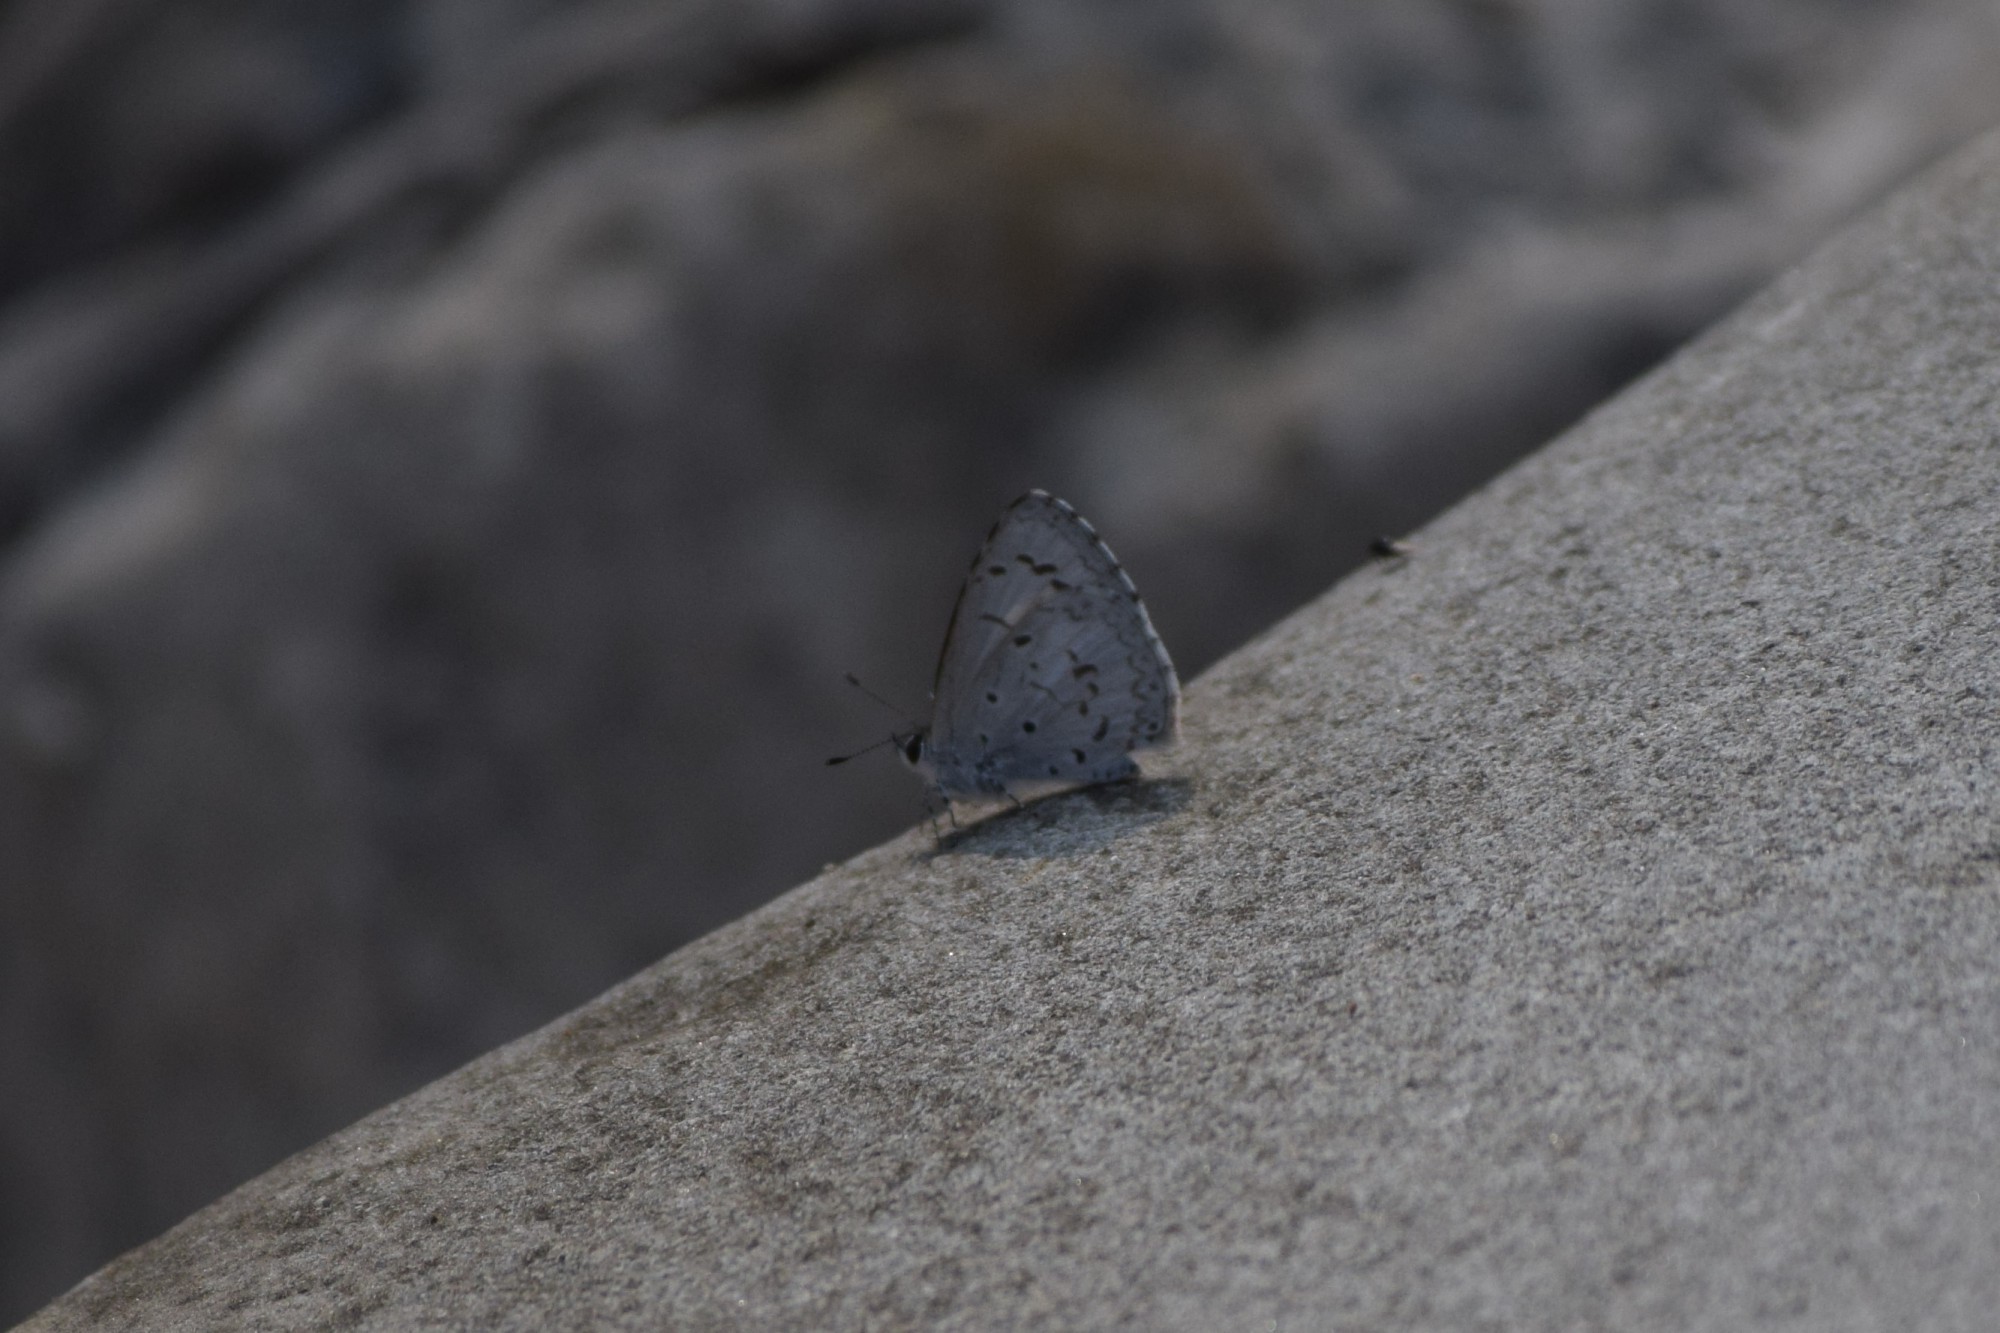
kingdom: Animalia
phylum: Arthropoda
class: Insecta
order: Lepidoptera
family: Lycaenidae
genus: Acytolepis
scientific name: Acytolepis puspa
